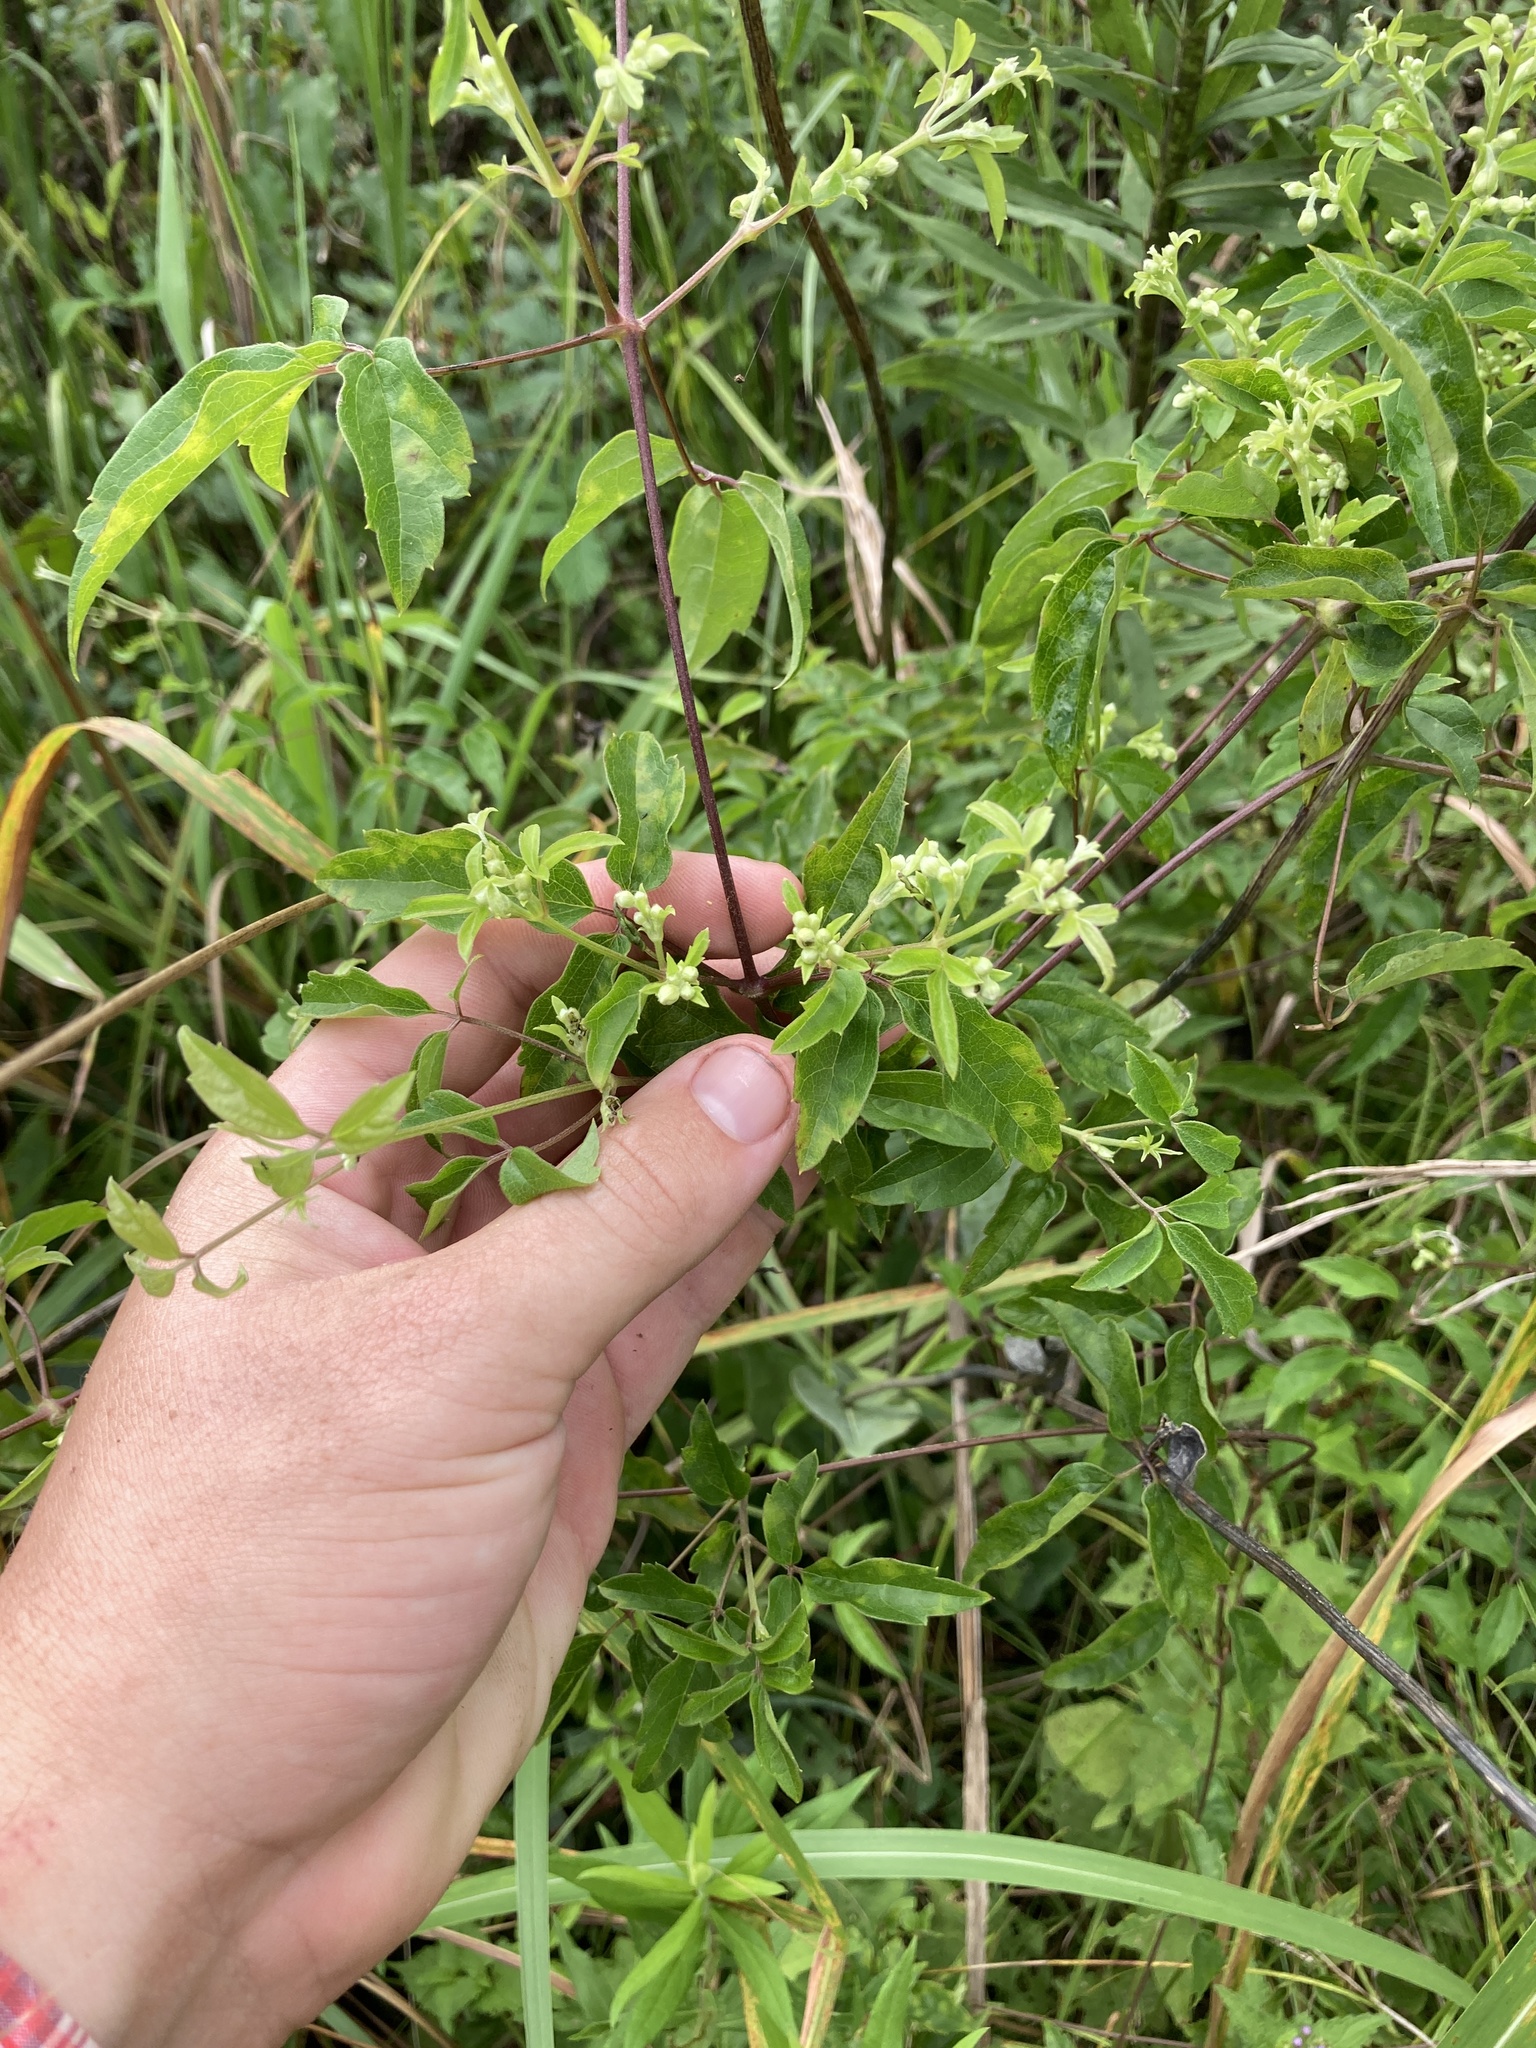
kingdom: Plantae
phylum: Tracheophyta
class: Magnoliopsida
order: Ranunculales
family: Ranunculaceae
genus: Clematis
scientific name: Clematis virginiana
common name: Virgin's-bower
